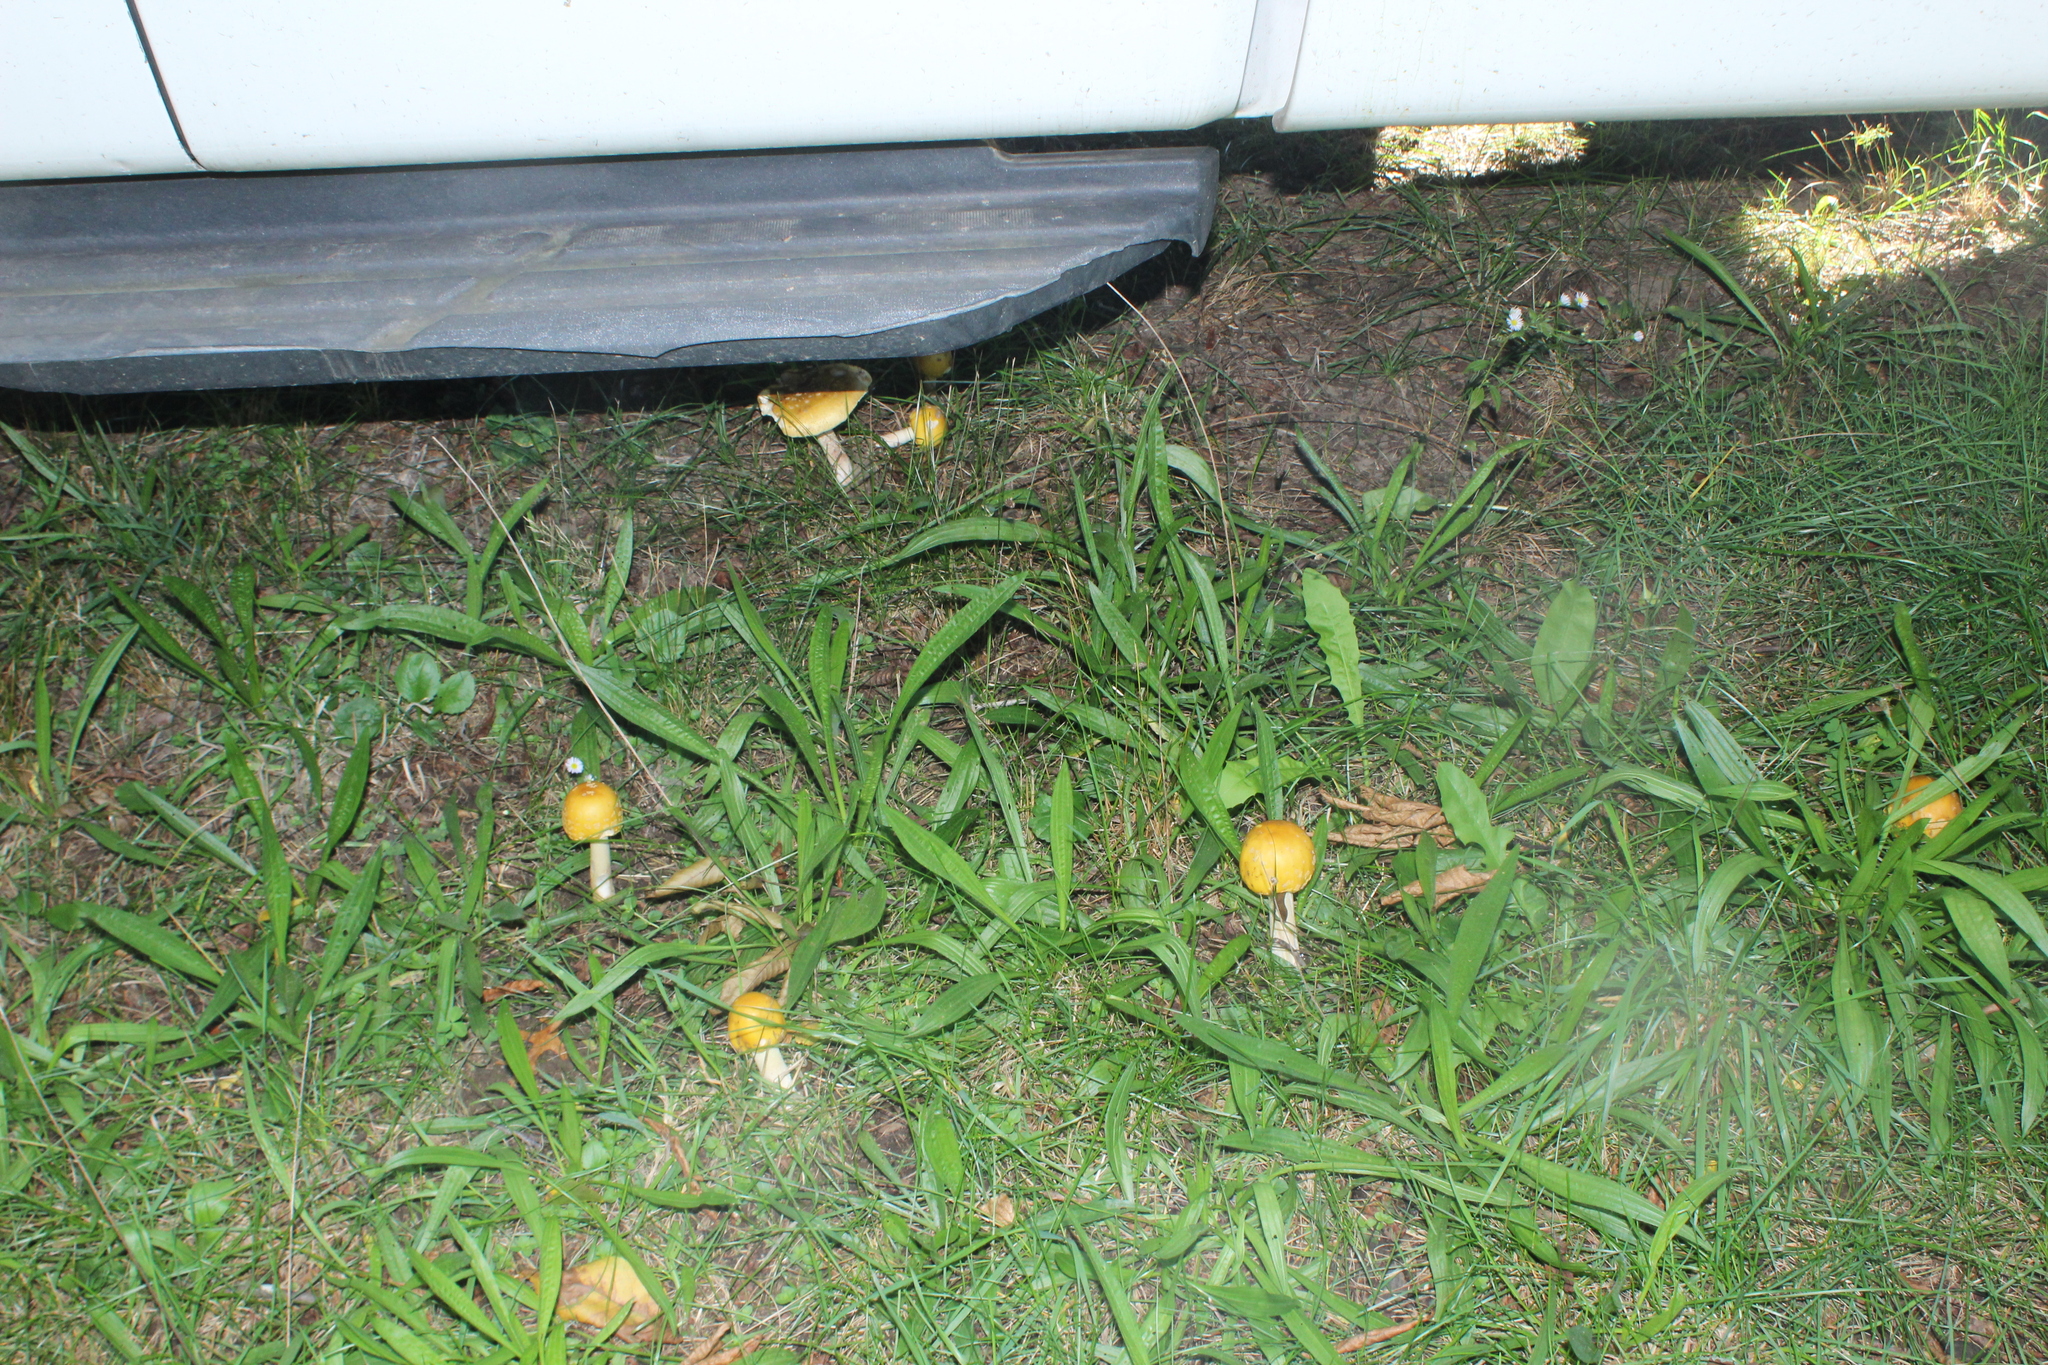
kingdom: Fungi
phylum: Basidiomycota
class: Agaricomycetes
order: Agaricales
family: Amanitaceae
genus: Amanita
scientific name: Amanita flavorubens
